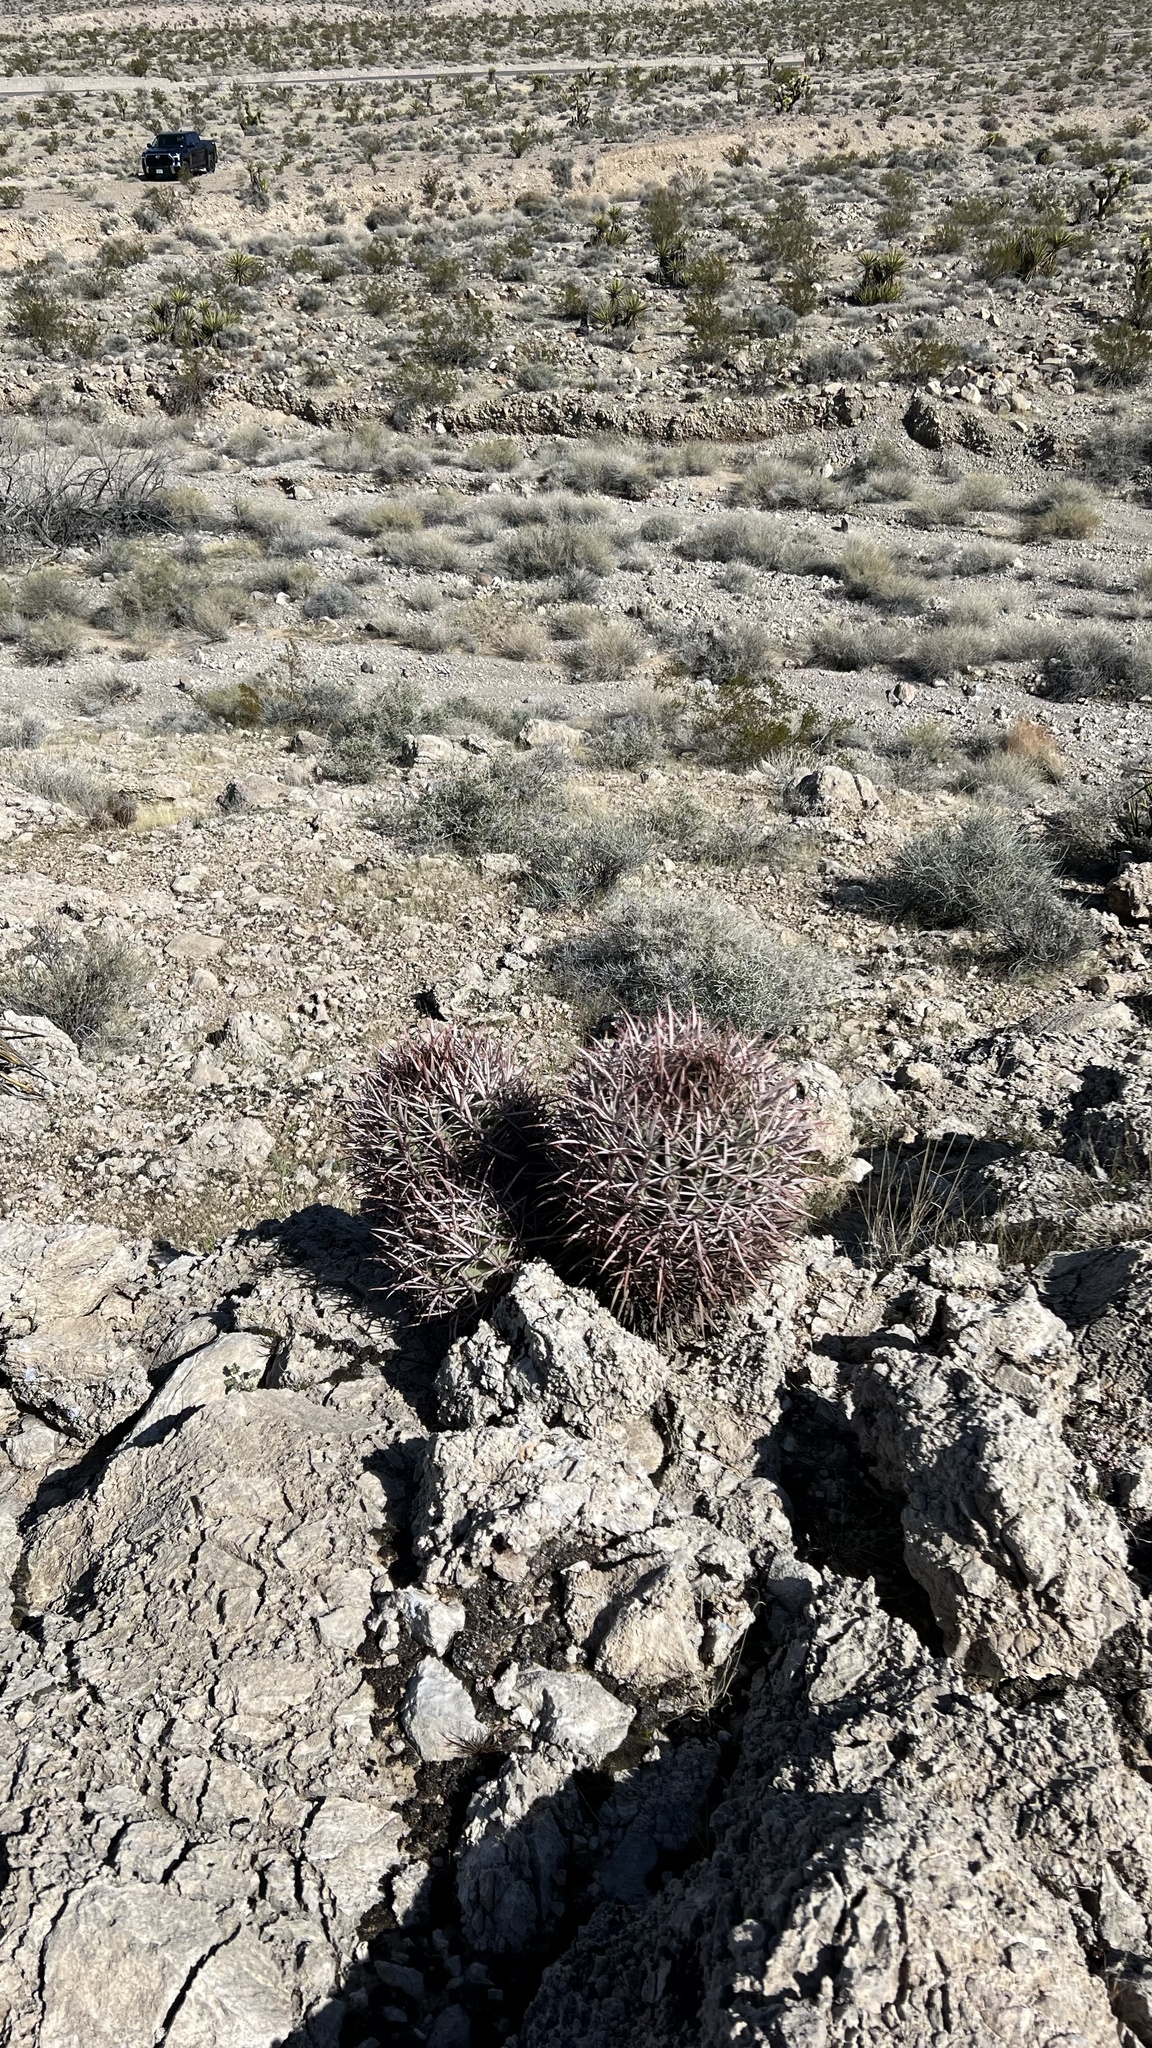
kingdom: Plantae
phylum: Tracheophyta
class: Magnoliopsida
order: Caryophyllales
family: Cactaceae
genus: Echinocactus
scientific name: Echinocactus polycephalus
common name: Cottontop cactus
